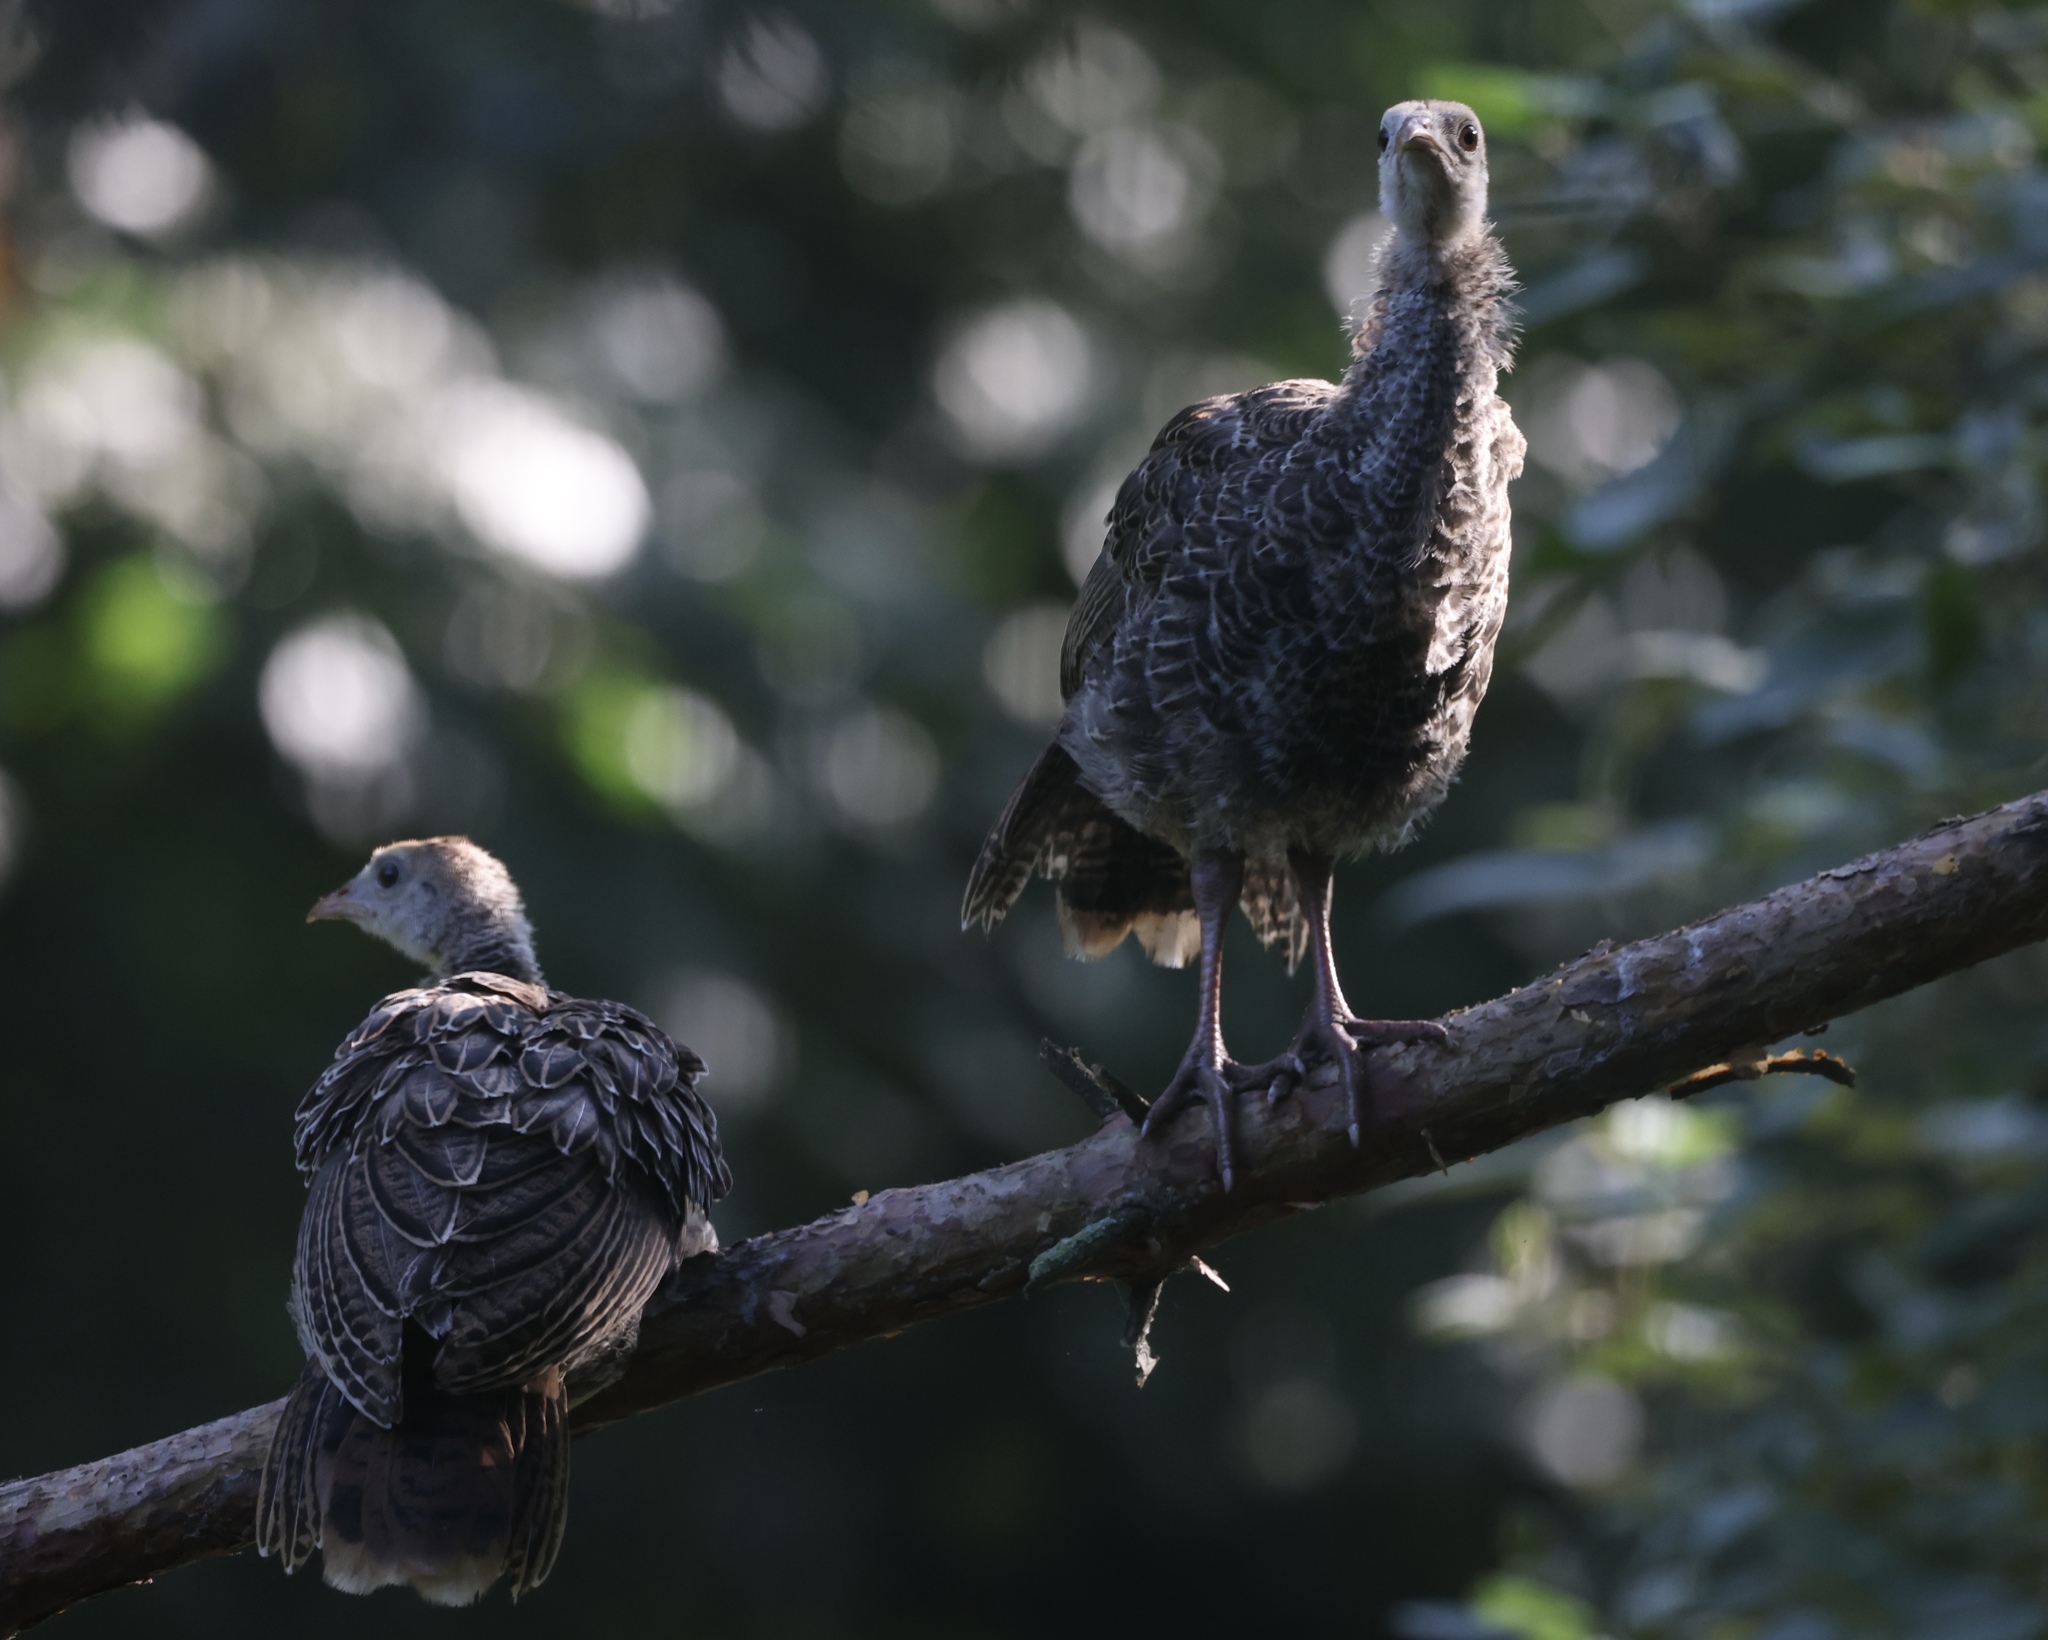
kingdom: Animalia
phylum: Chordata
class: Aves
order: Galliformes
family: Phasianidae
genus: Meleagris
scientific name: Meleagris gallopavo
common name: Wild turkey
